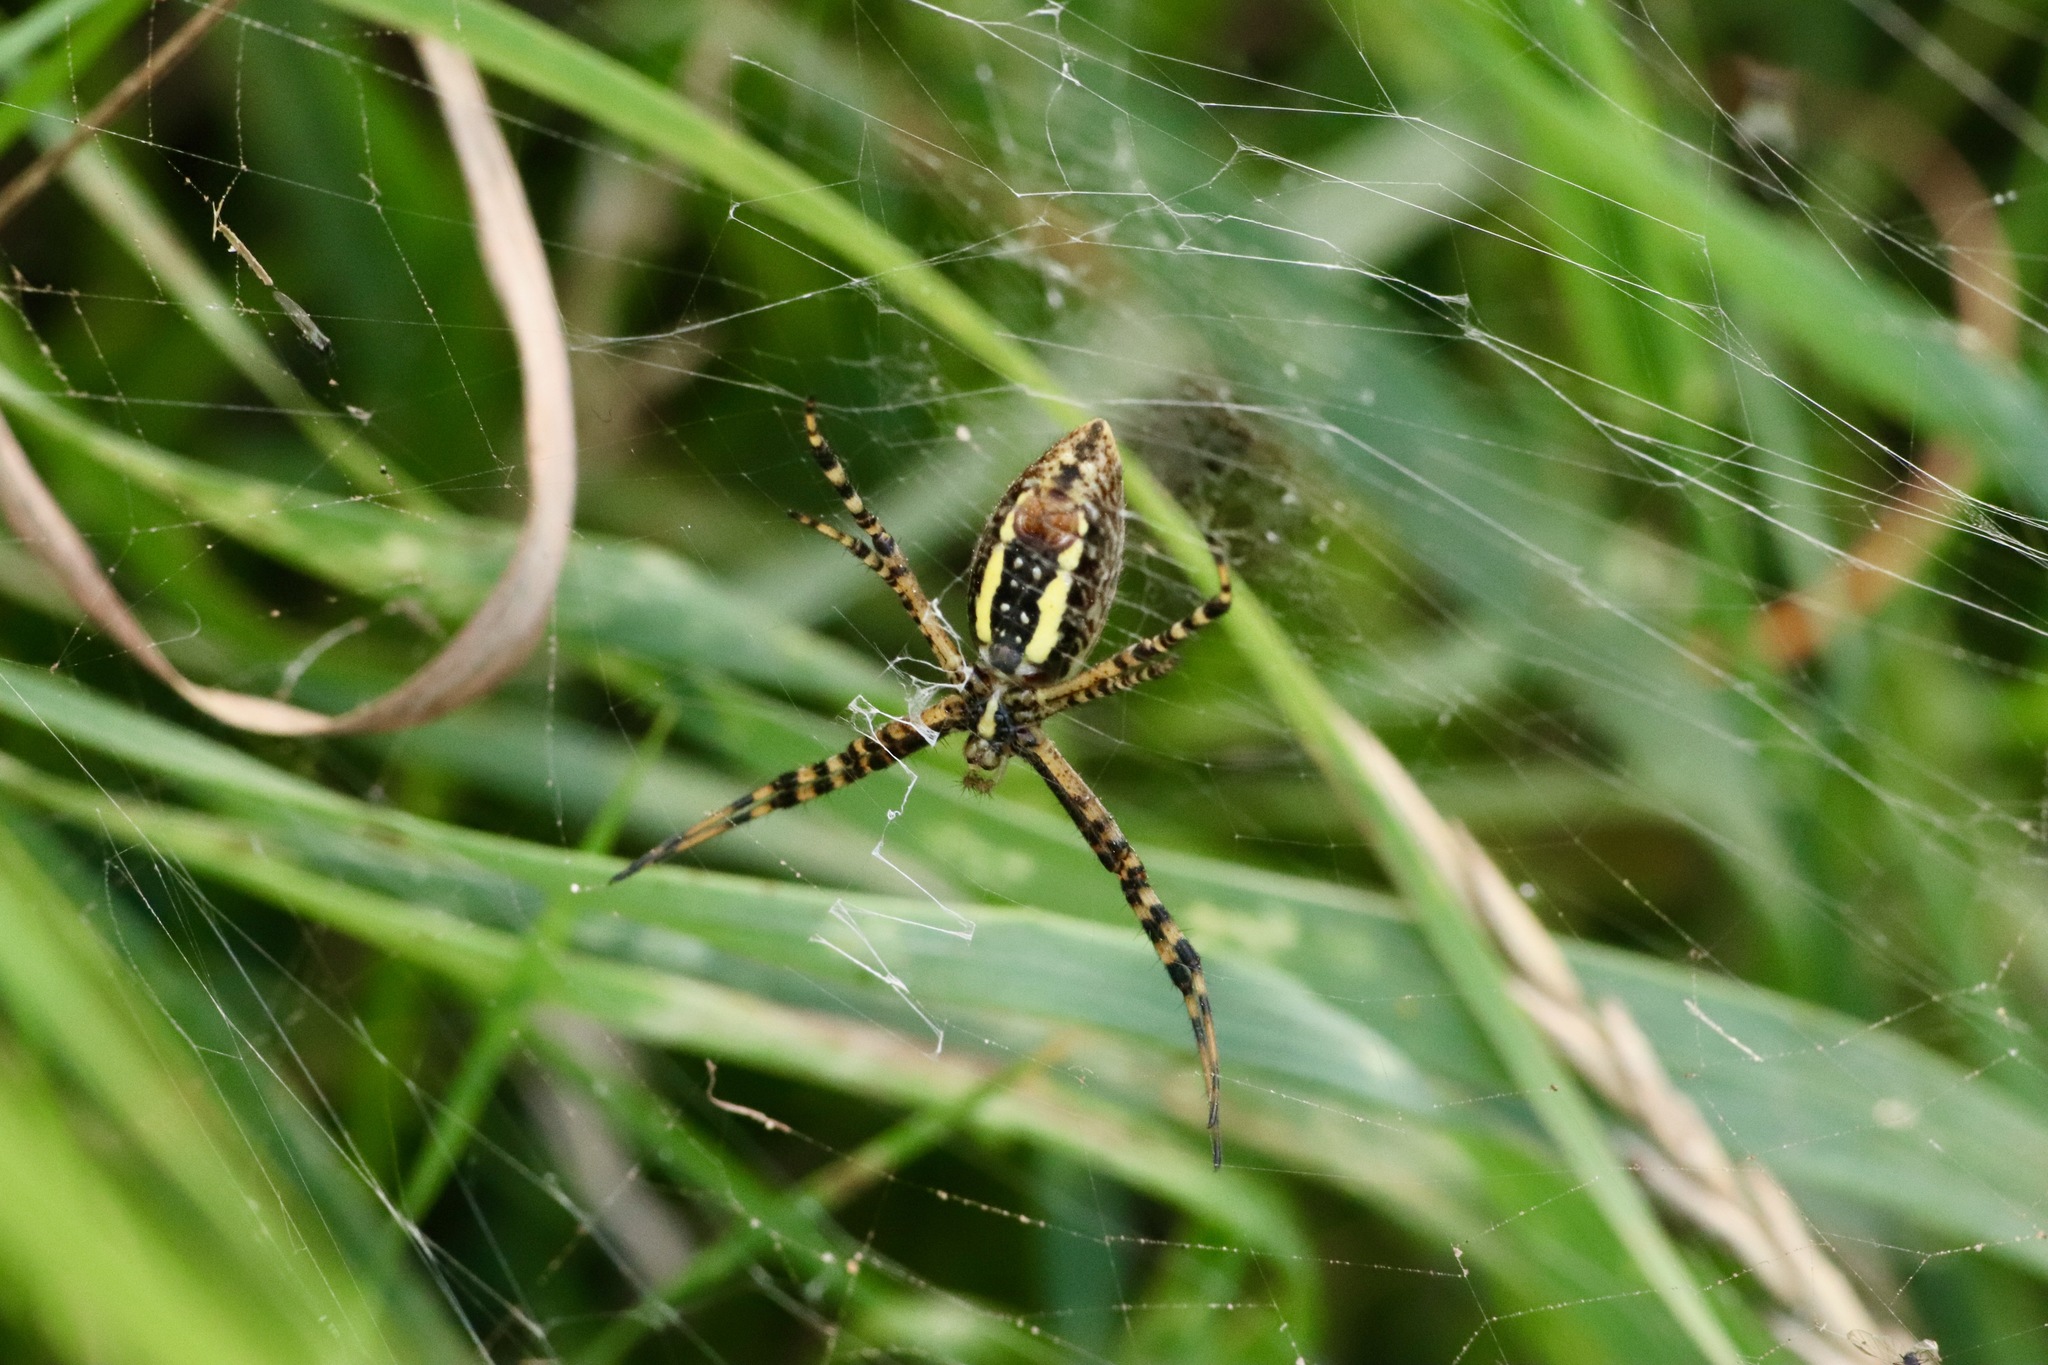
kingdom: Animalia
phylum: Arthropoda
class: Arachnida
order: Araneae
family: Araneidae
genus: Argiope
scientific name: Argiope trifasciata
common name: Banded garden spider
